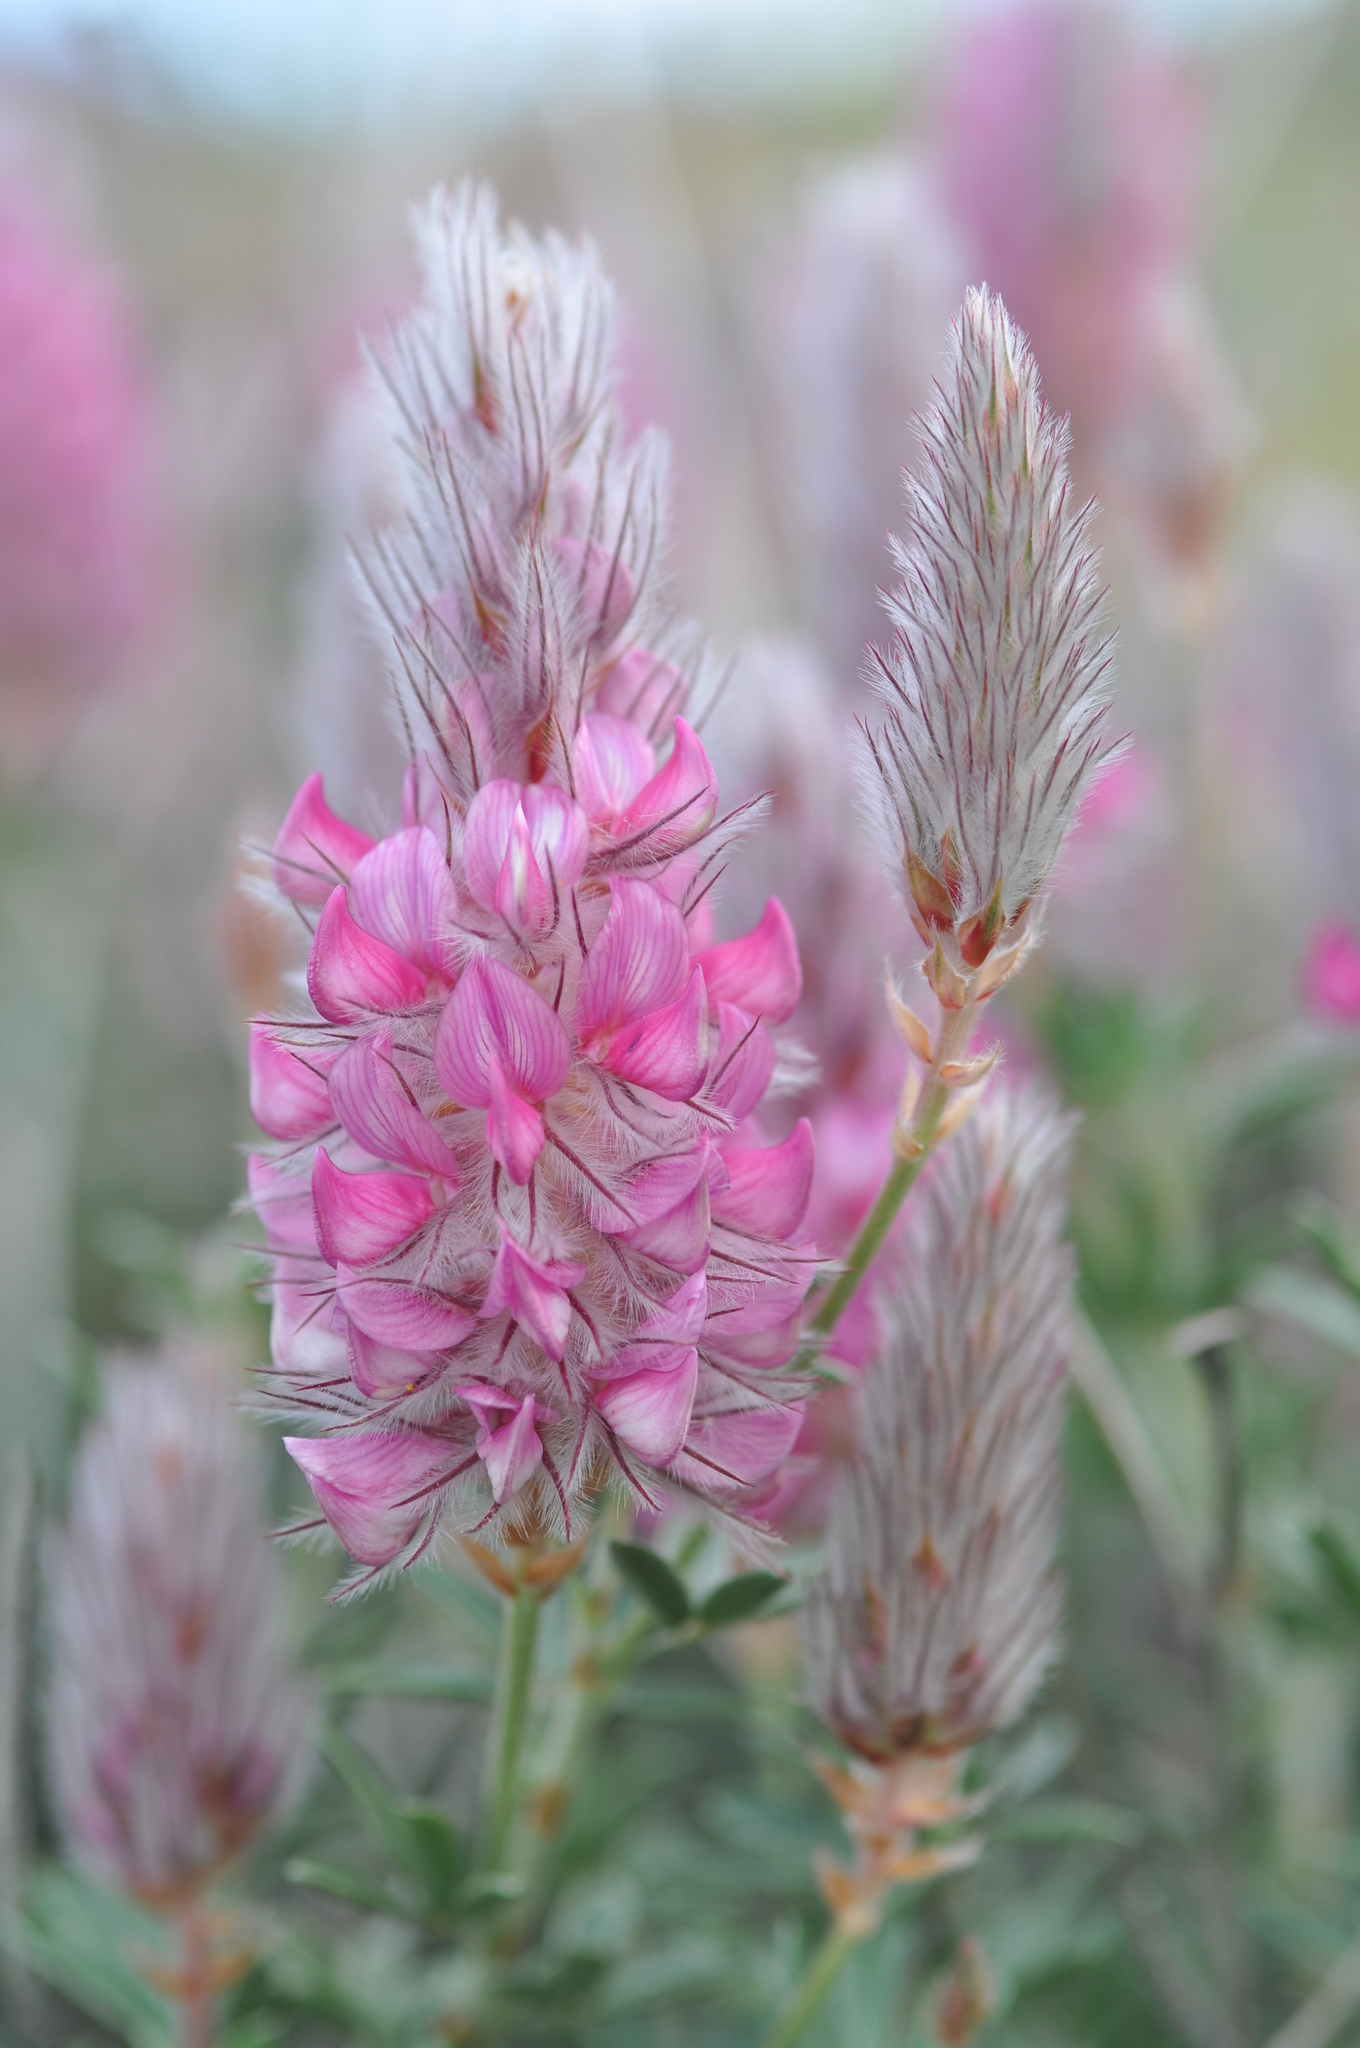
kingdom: Plantae
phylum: Tracheophyta
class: Magnoliopsida
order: Fabales
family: Fabaceae
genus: Ebenus
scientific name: Ebenus cretica
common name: Cretan silver bush
